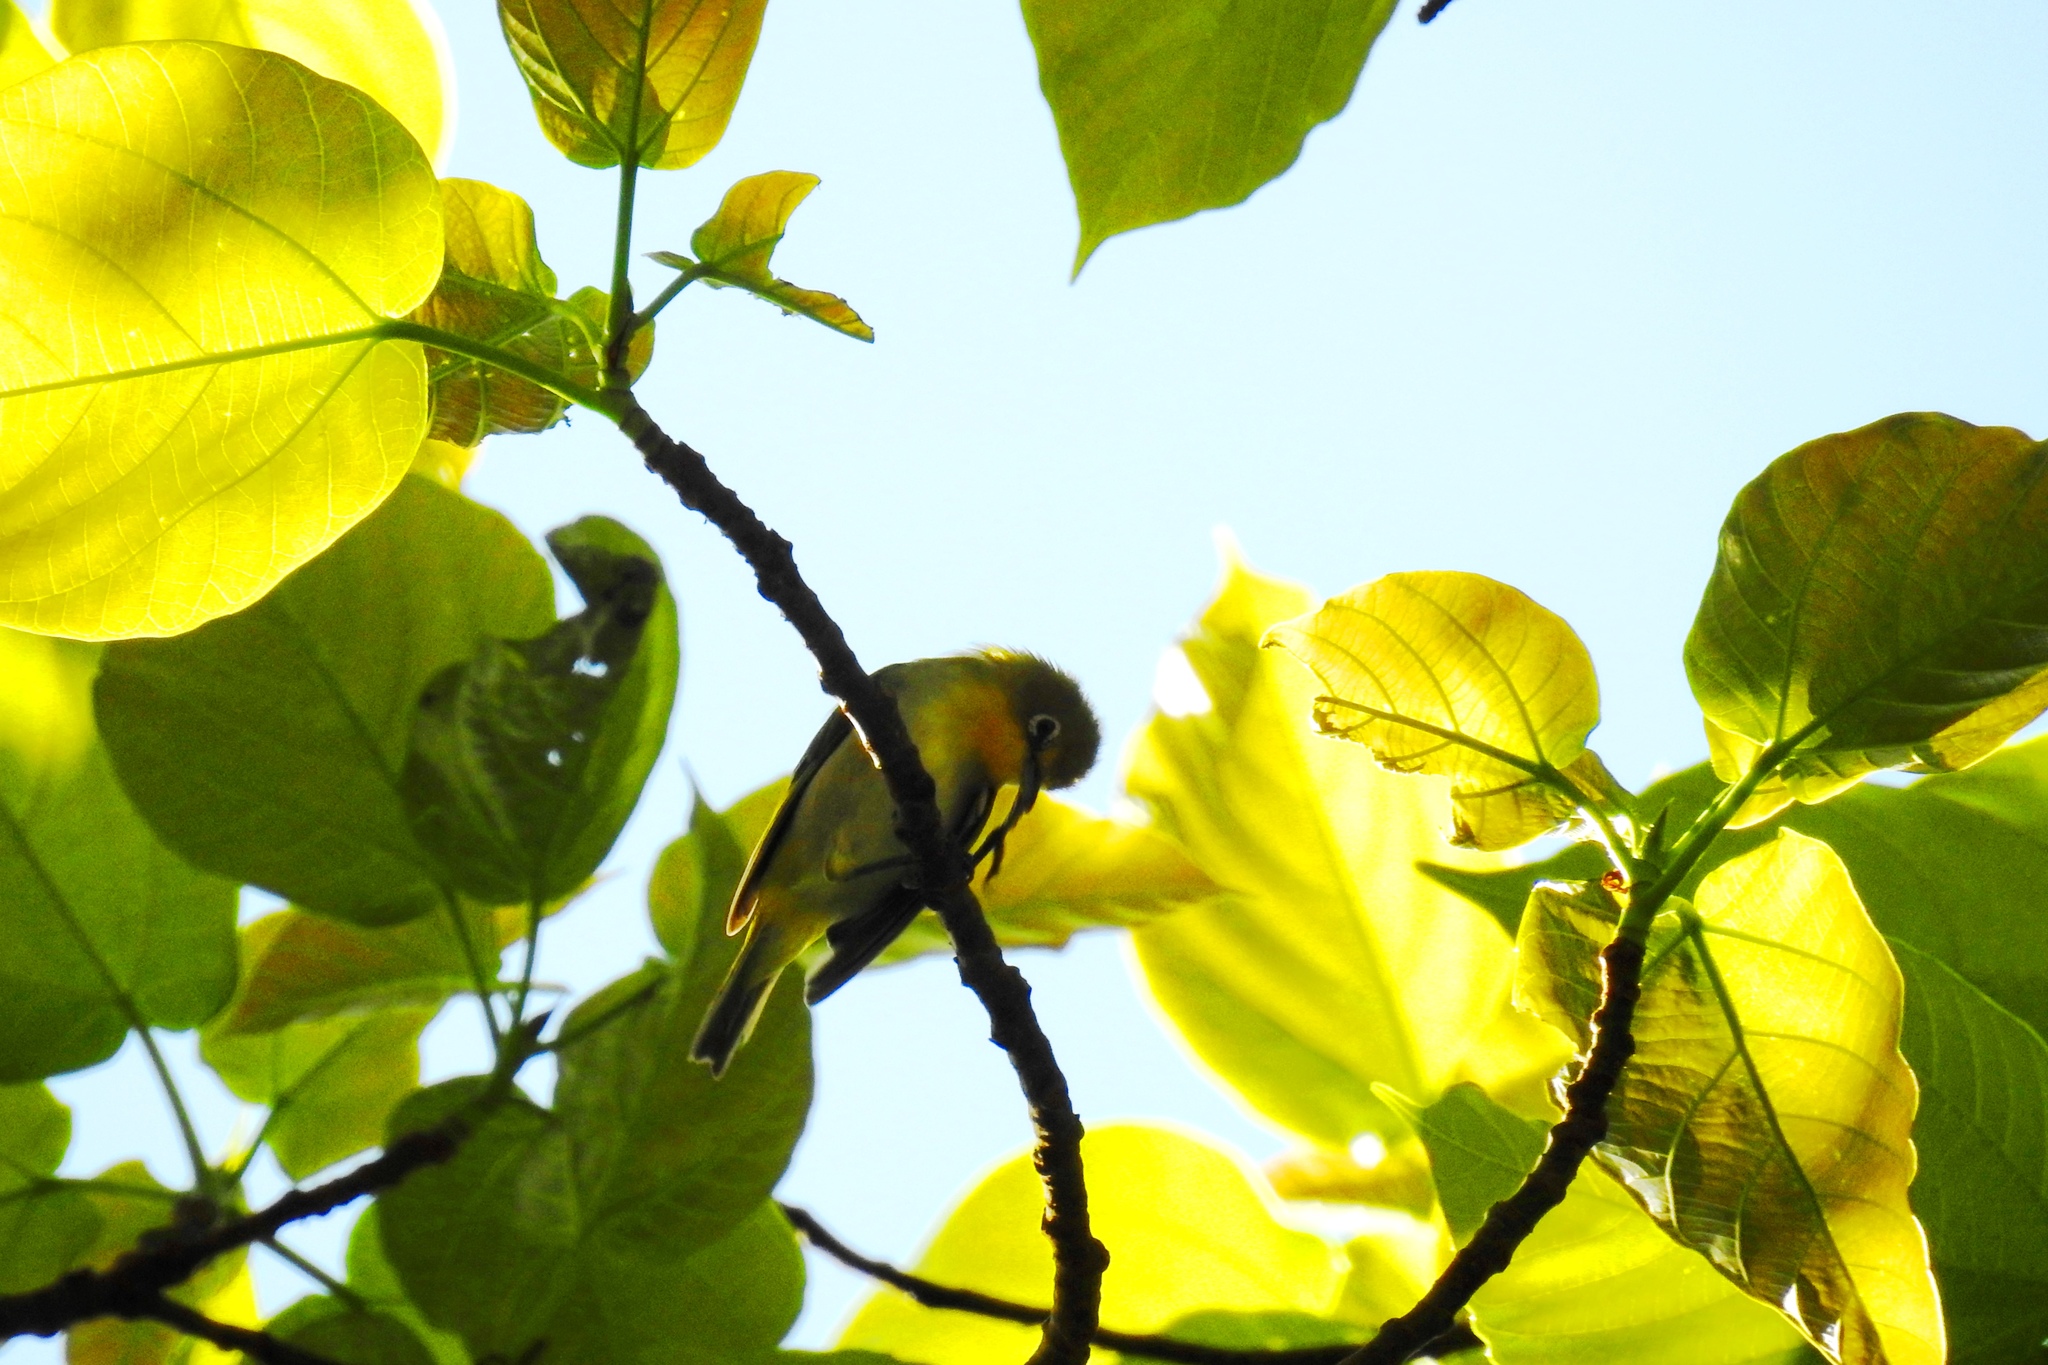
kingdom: Animalia
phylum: Chordata
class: Aves
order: Passeriformes
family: Zosteropidae
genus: Zosterops
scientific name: Zosterops meyeni
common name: Lowland white-eye
